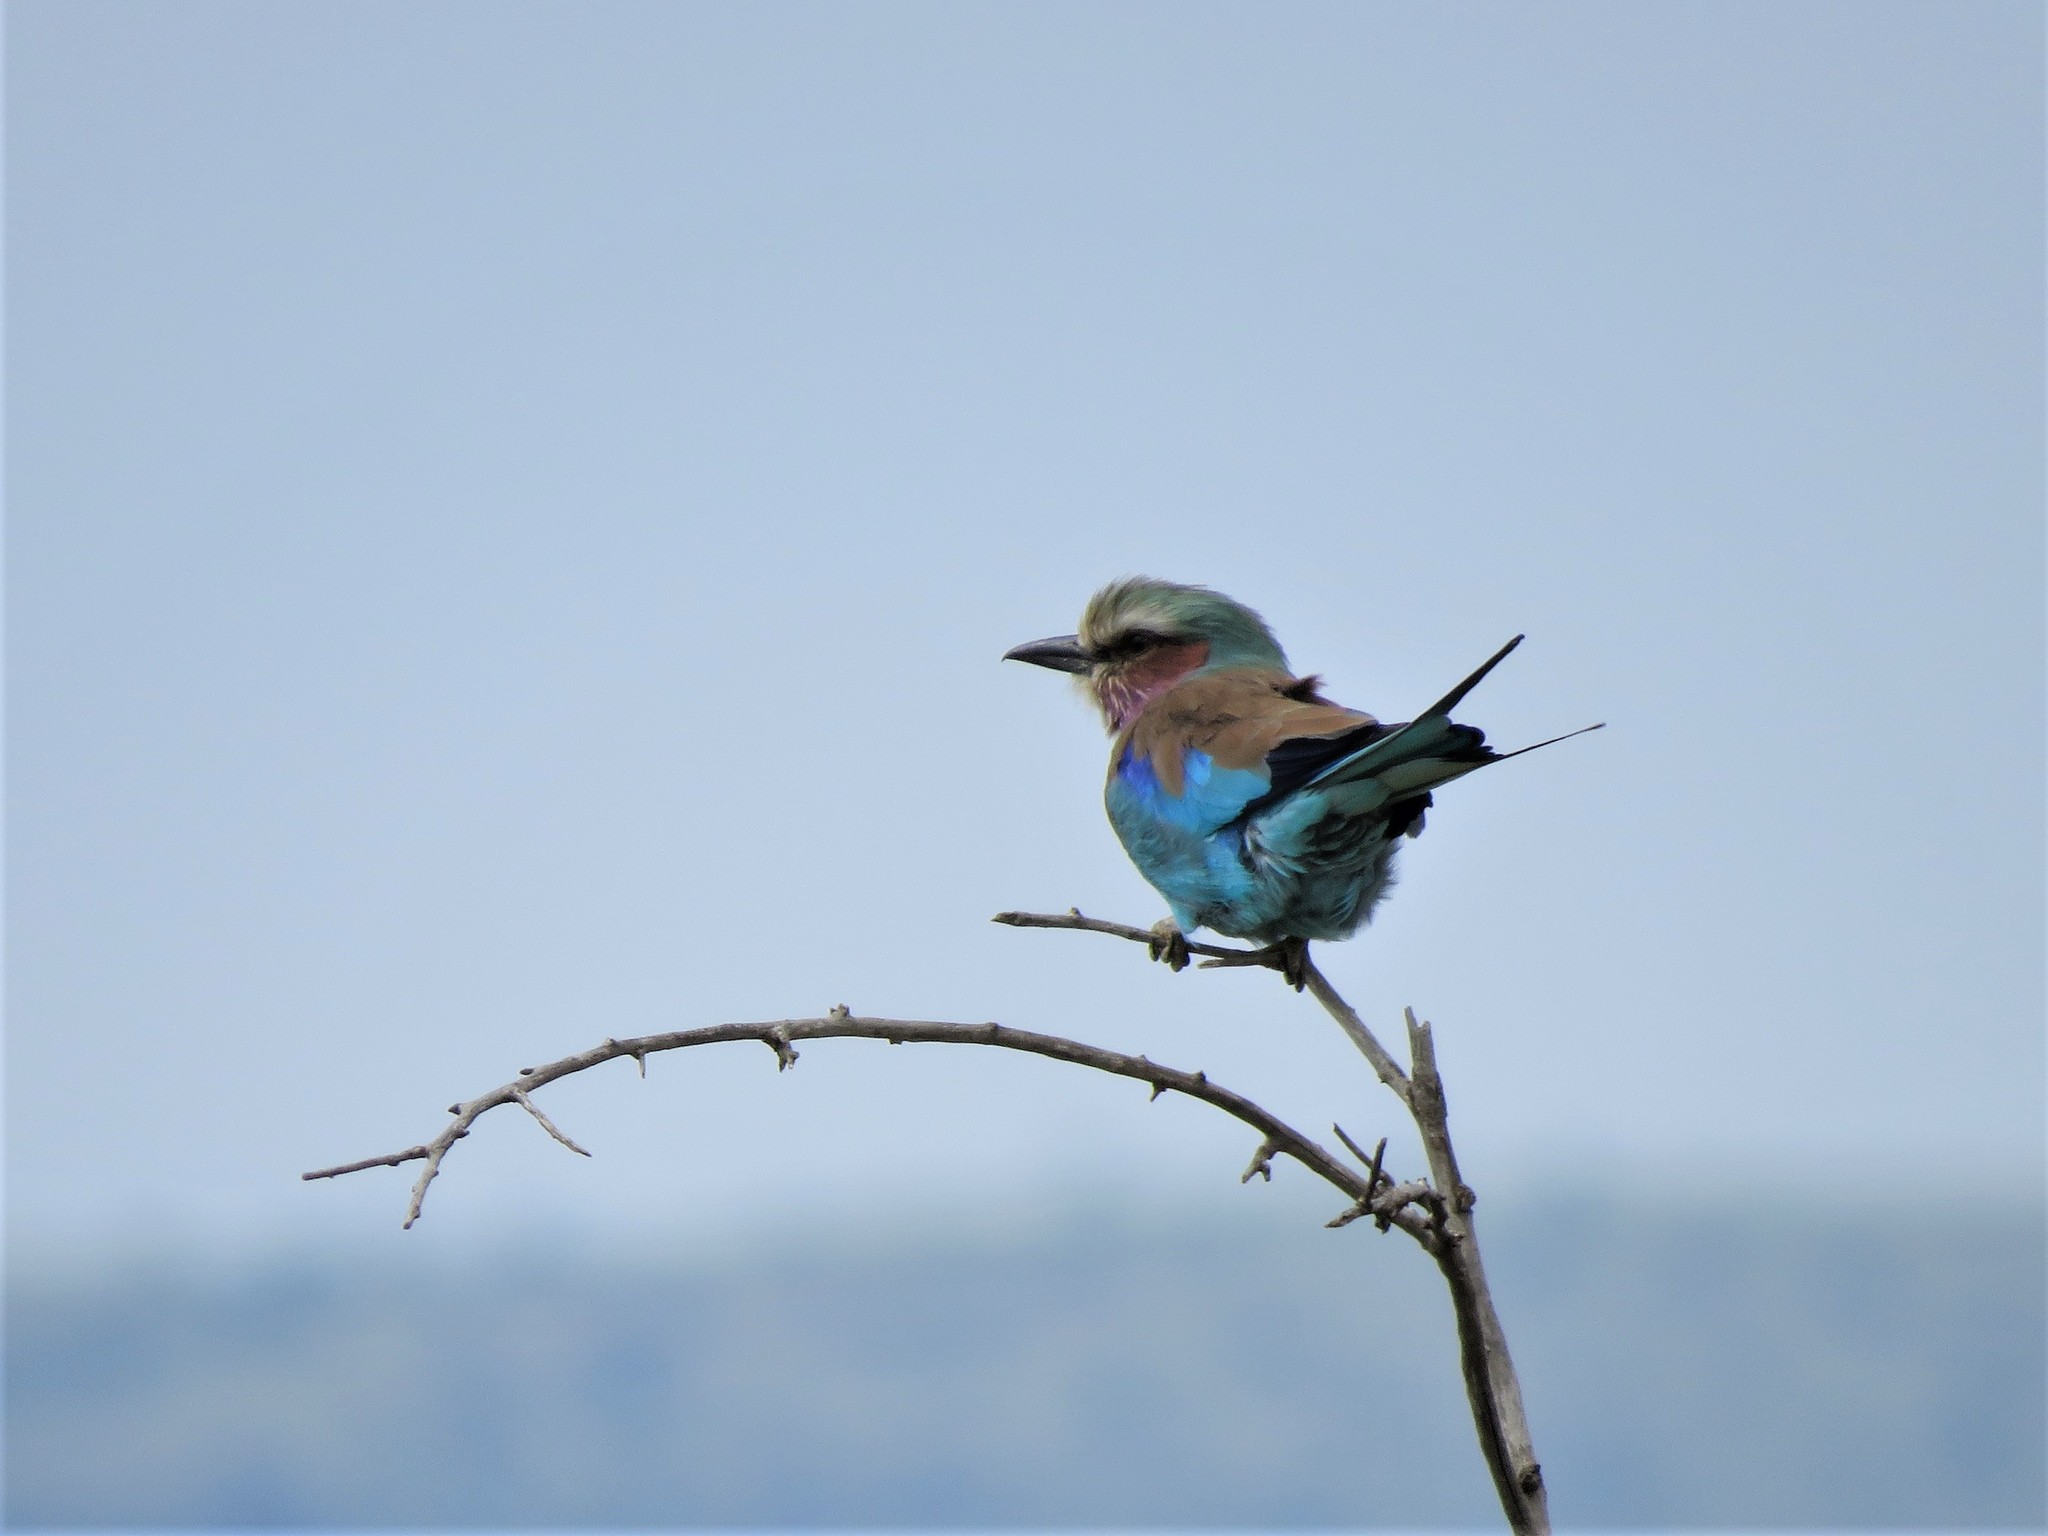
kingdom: Animalia
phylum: Chordata
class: Aves
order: Coraciiformes
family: Coraciidae
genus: Coracias
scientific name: Coracias caudatus
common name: Lilac-breasted roller
